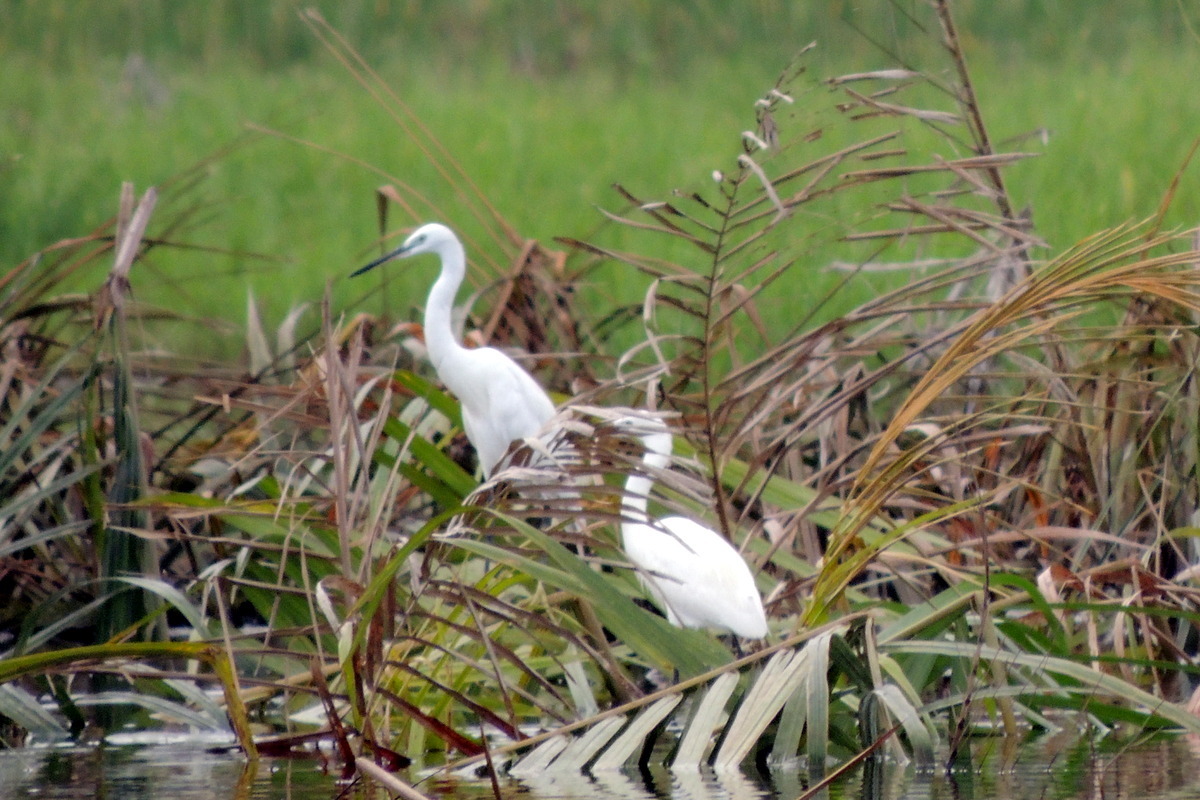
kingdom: Animalia
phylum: Chordata
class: Aves
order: Pelecaniformes
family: Ardeidae
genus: Egretta
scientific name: Egretta garzetta
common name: Little egret
